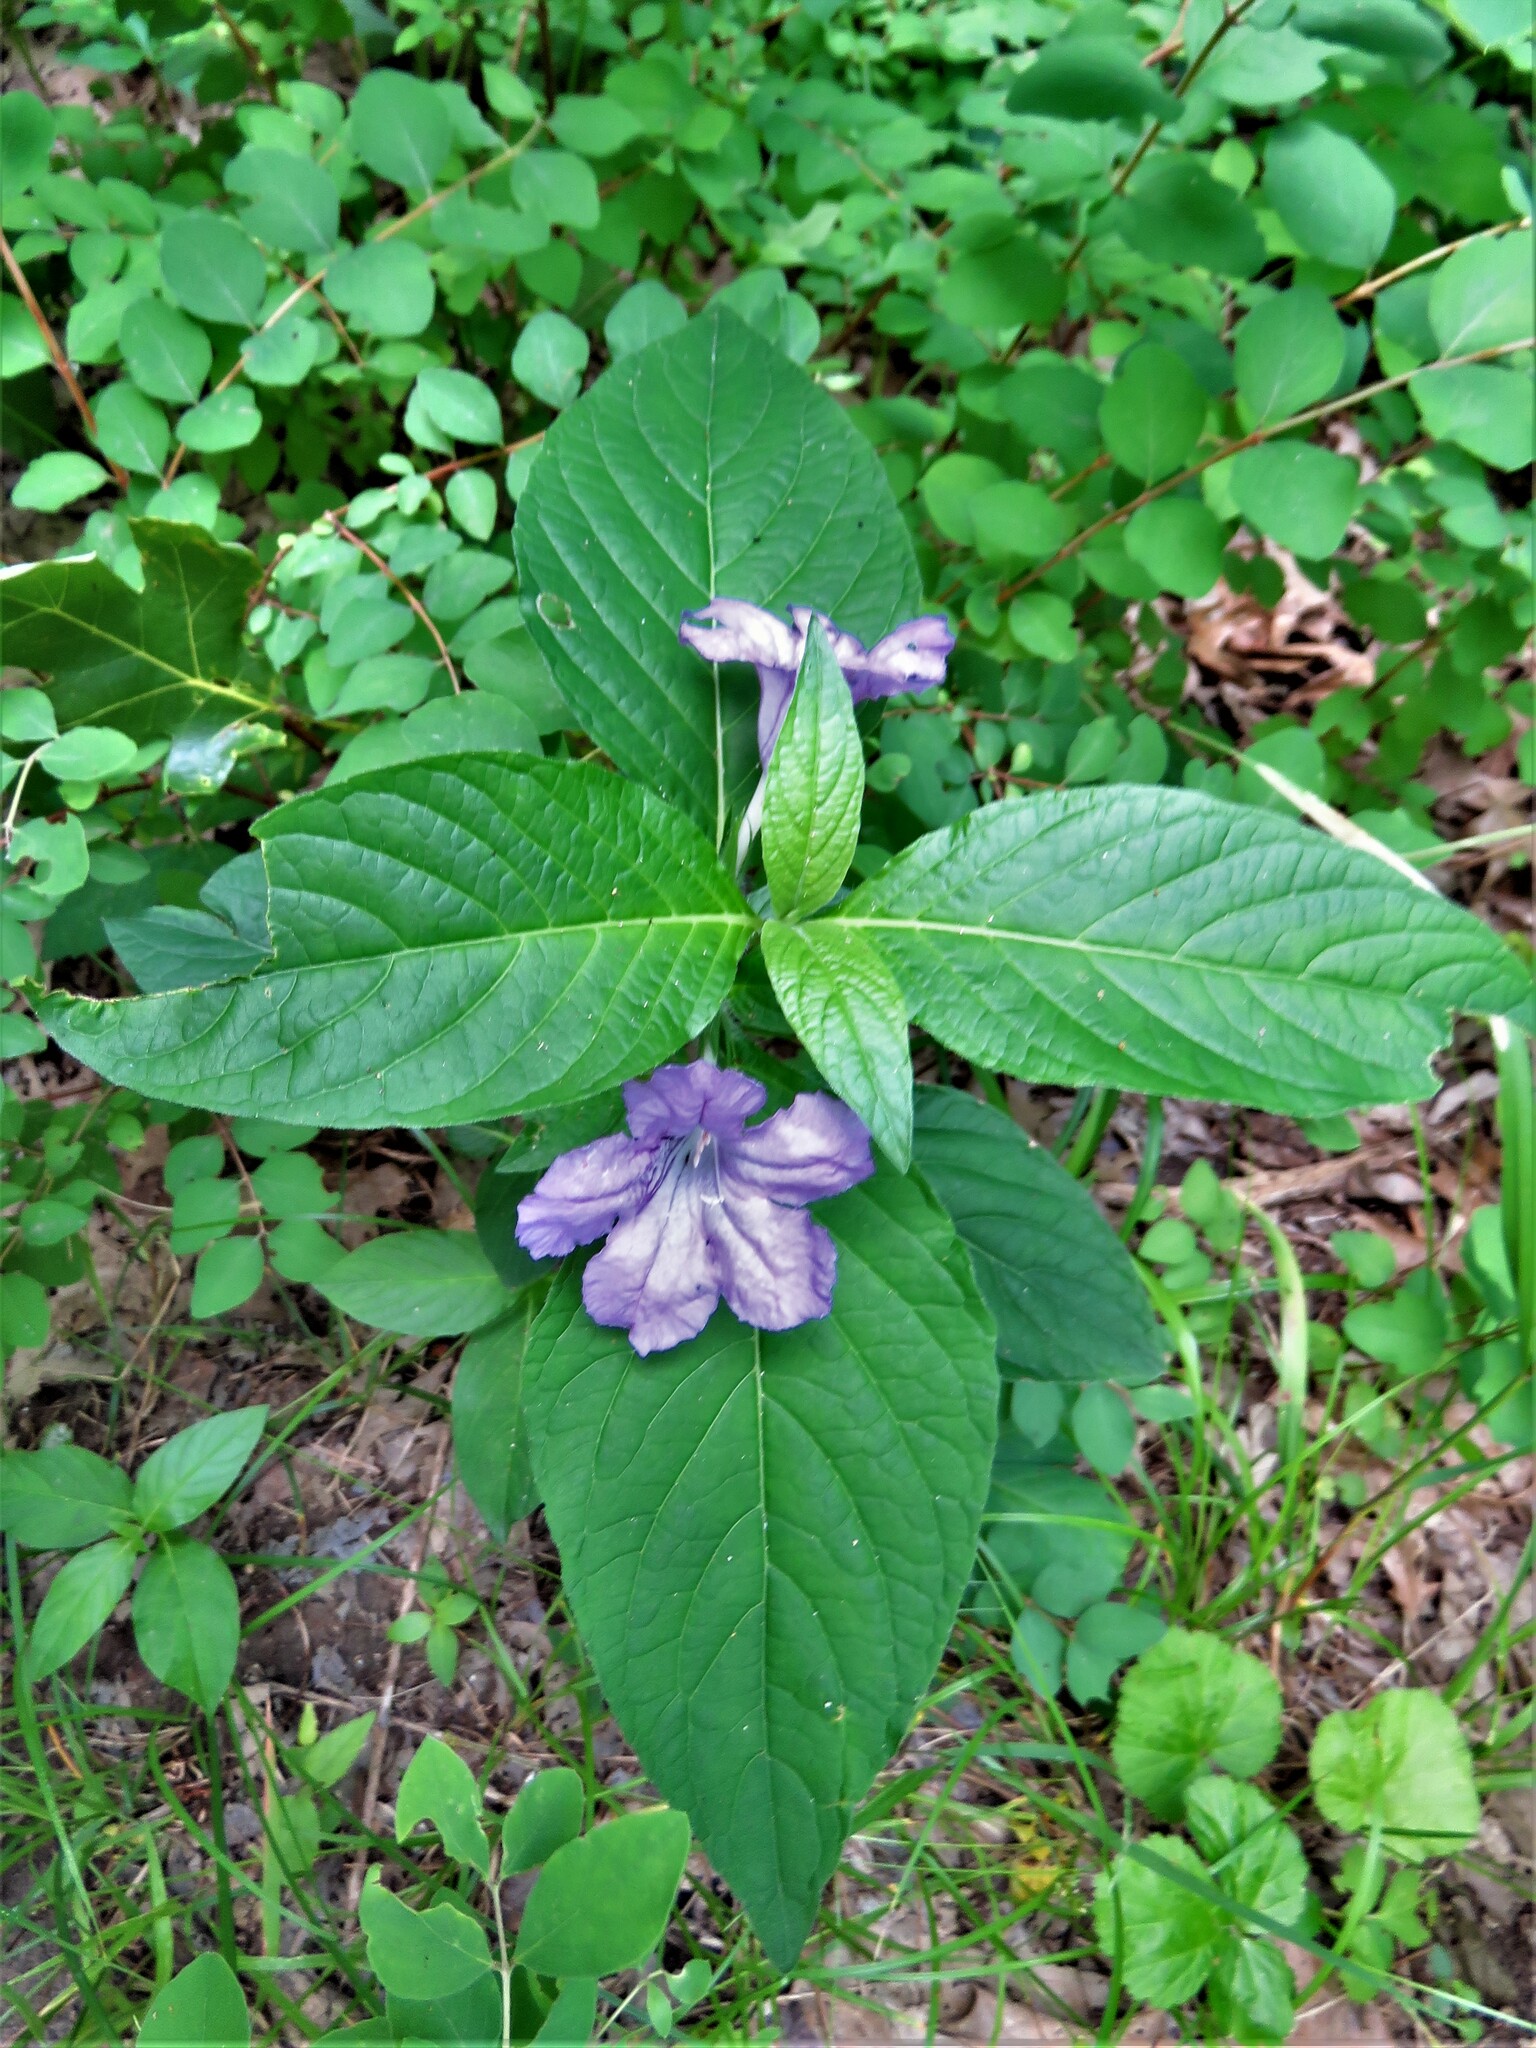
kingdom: Plantae
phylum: Tracheophyta
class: Magnoliopsida
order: Lamiales
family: Acanthaceae
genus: Ruellia
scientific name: Ruellia strepens
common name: Limestone wild petunia
